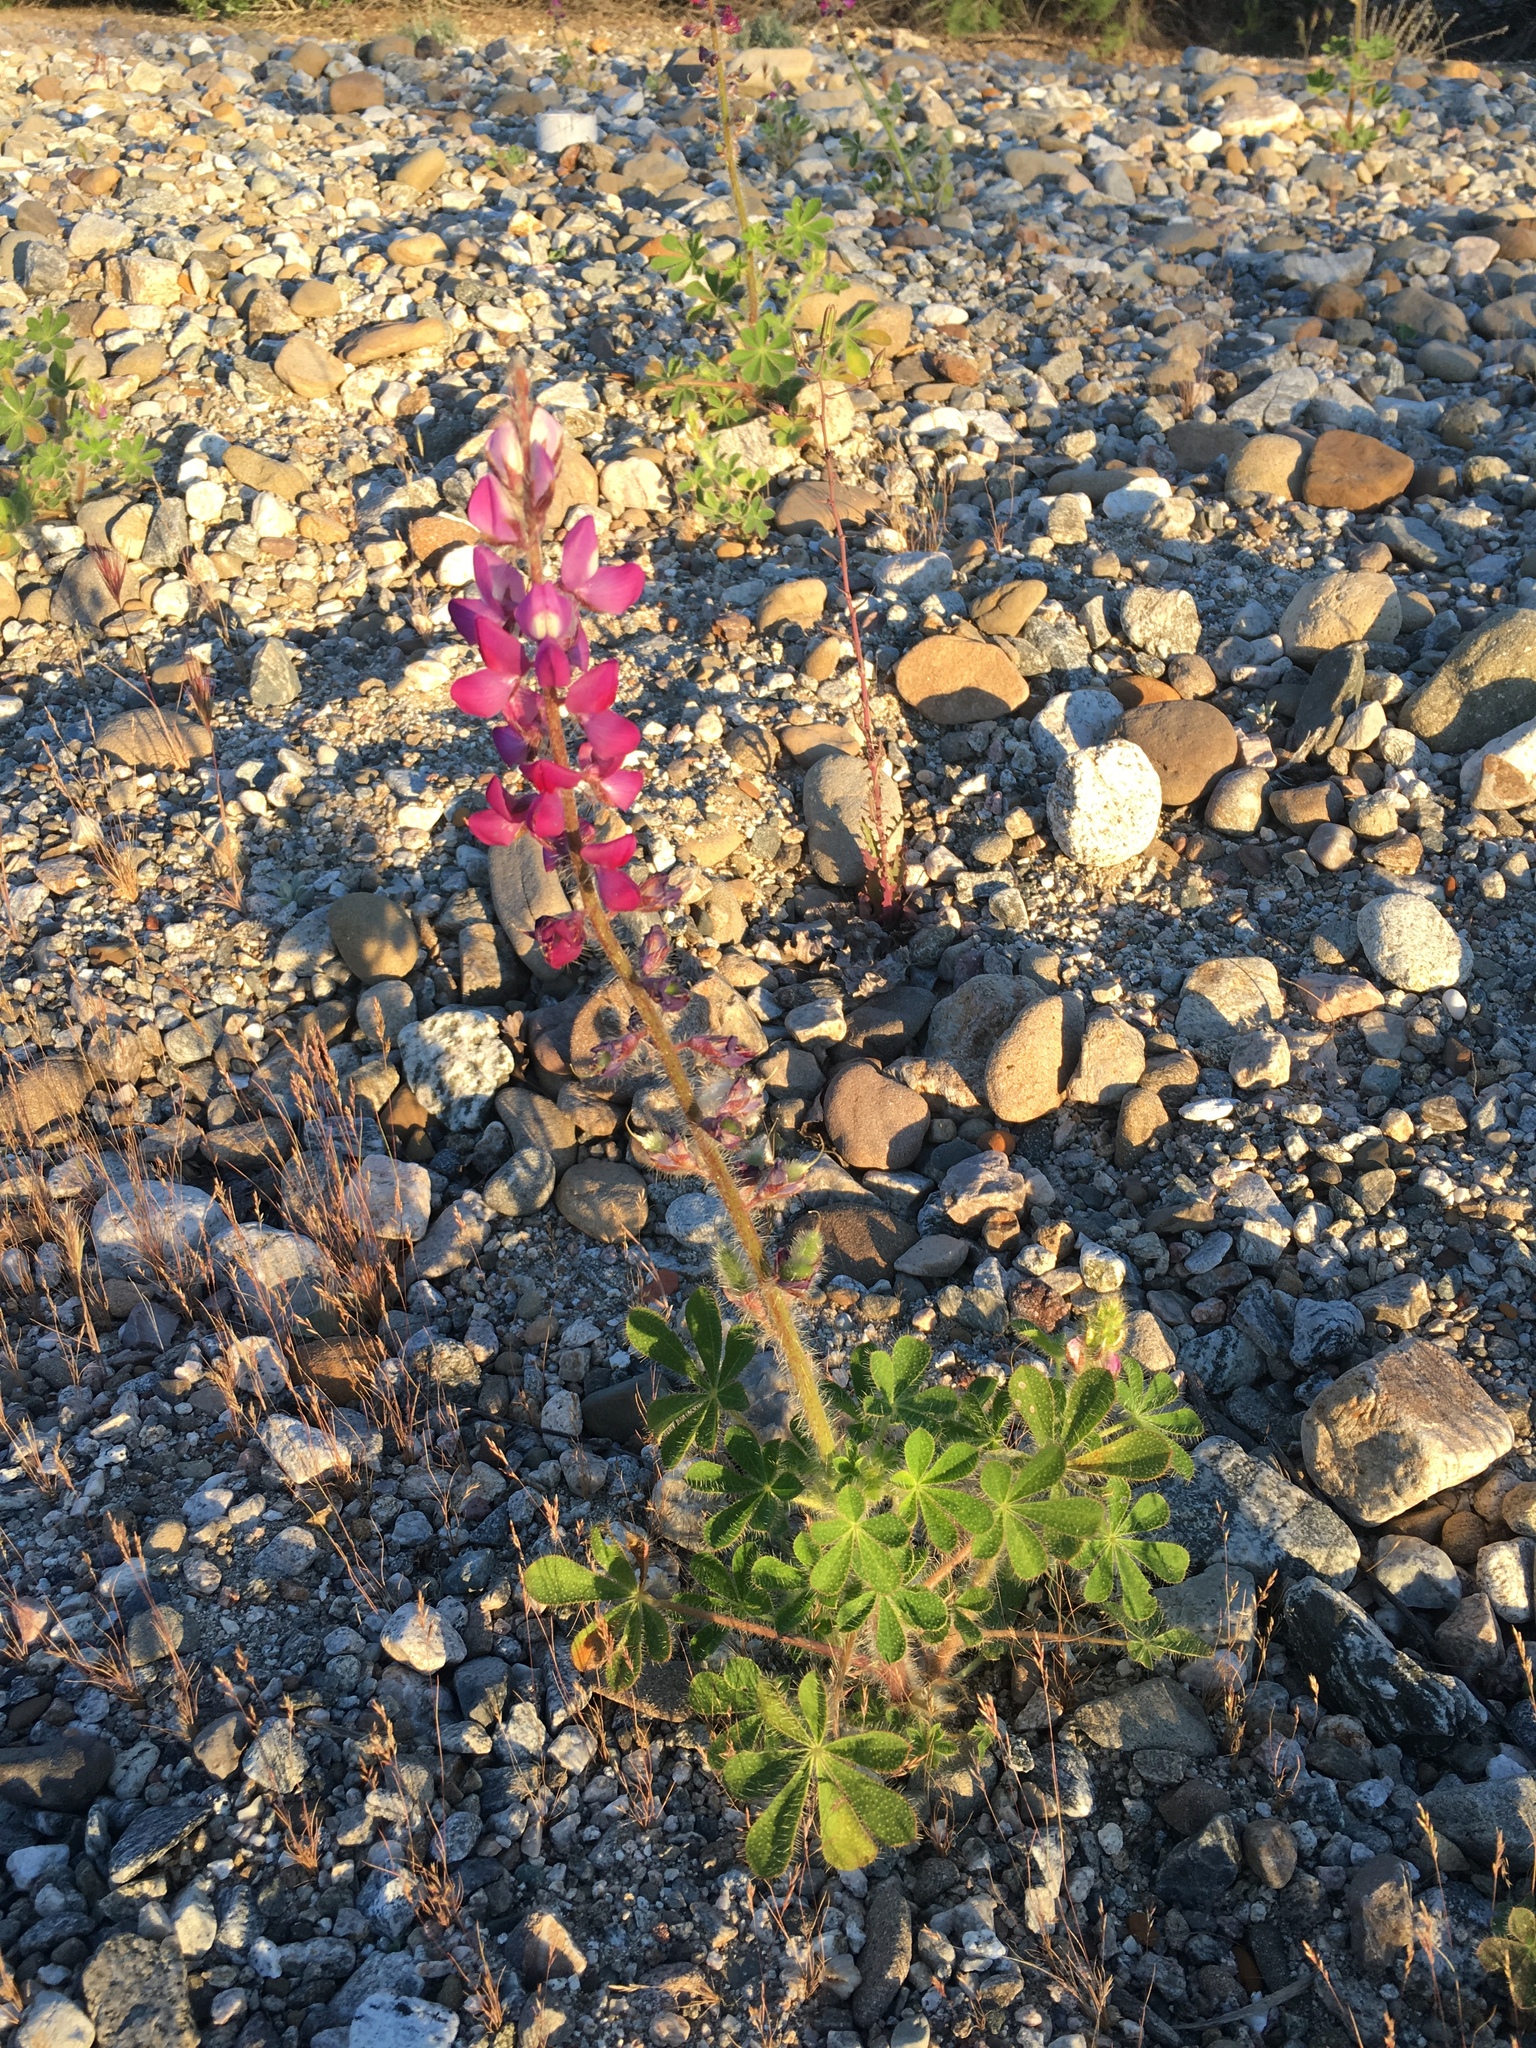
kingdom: Plantae
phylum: Tracheophyta
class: Magnoliopsida
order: Fabales
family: Fabaceae
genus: Lupinus
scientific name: Lupinus hirsutissimus
